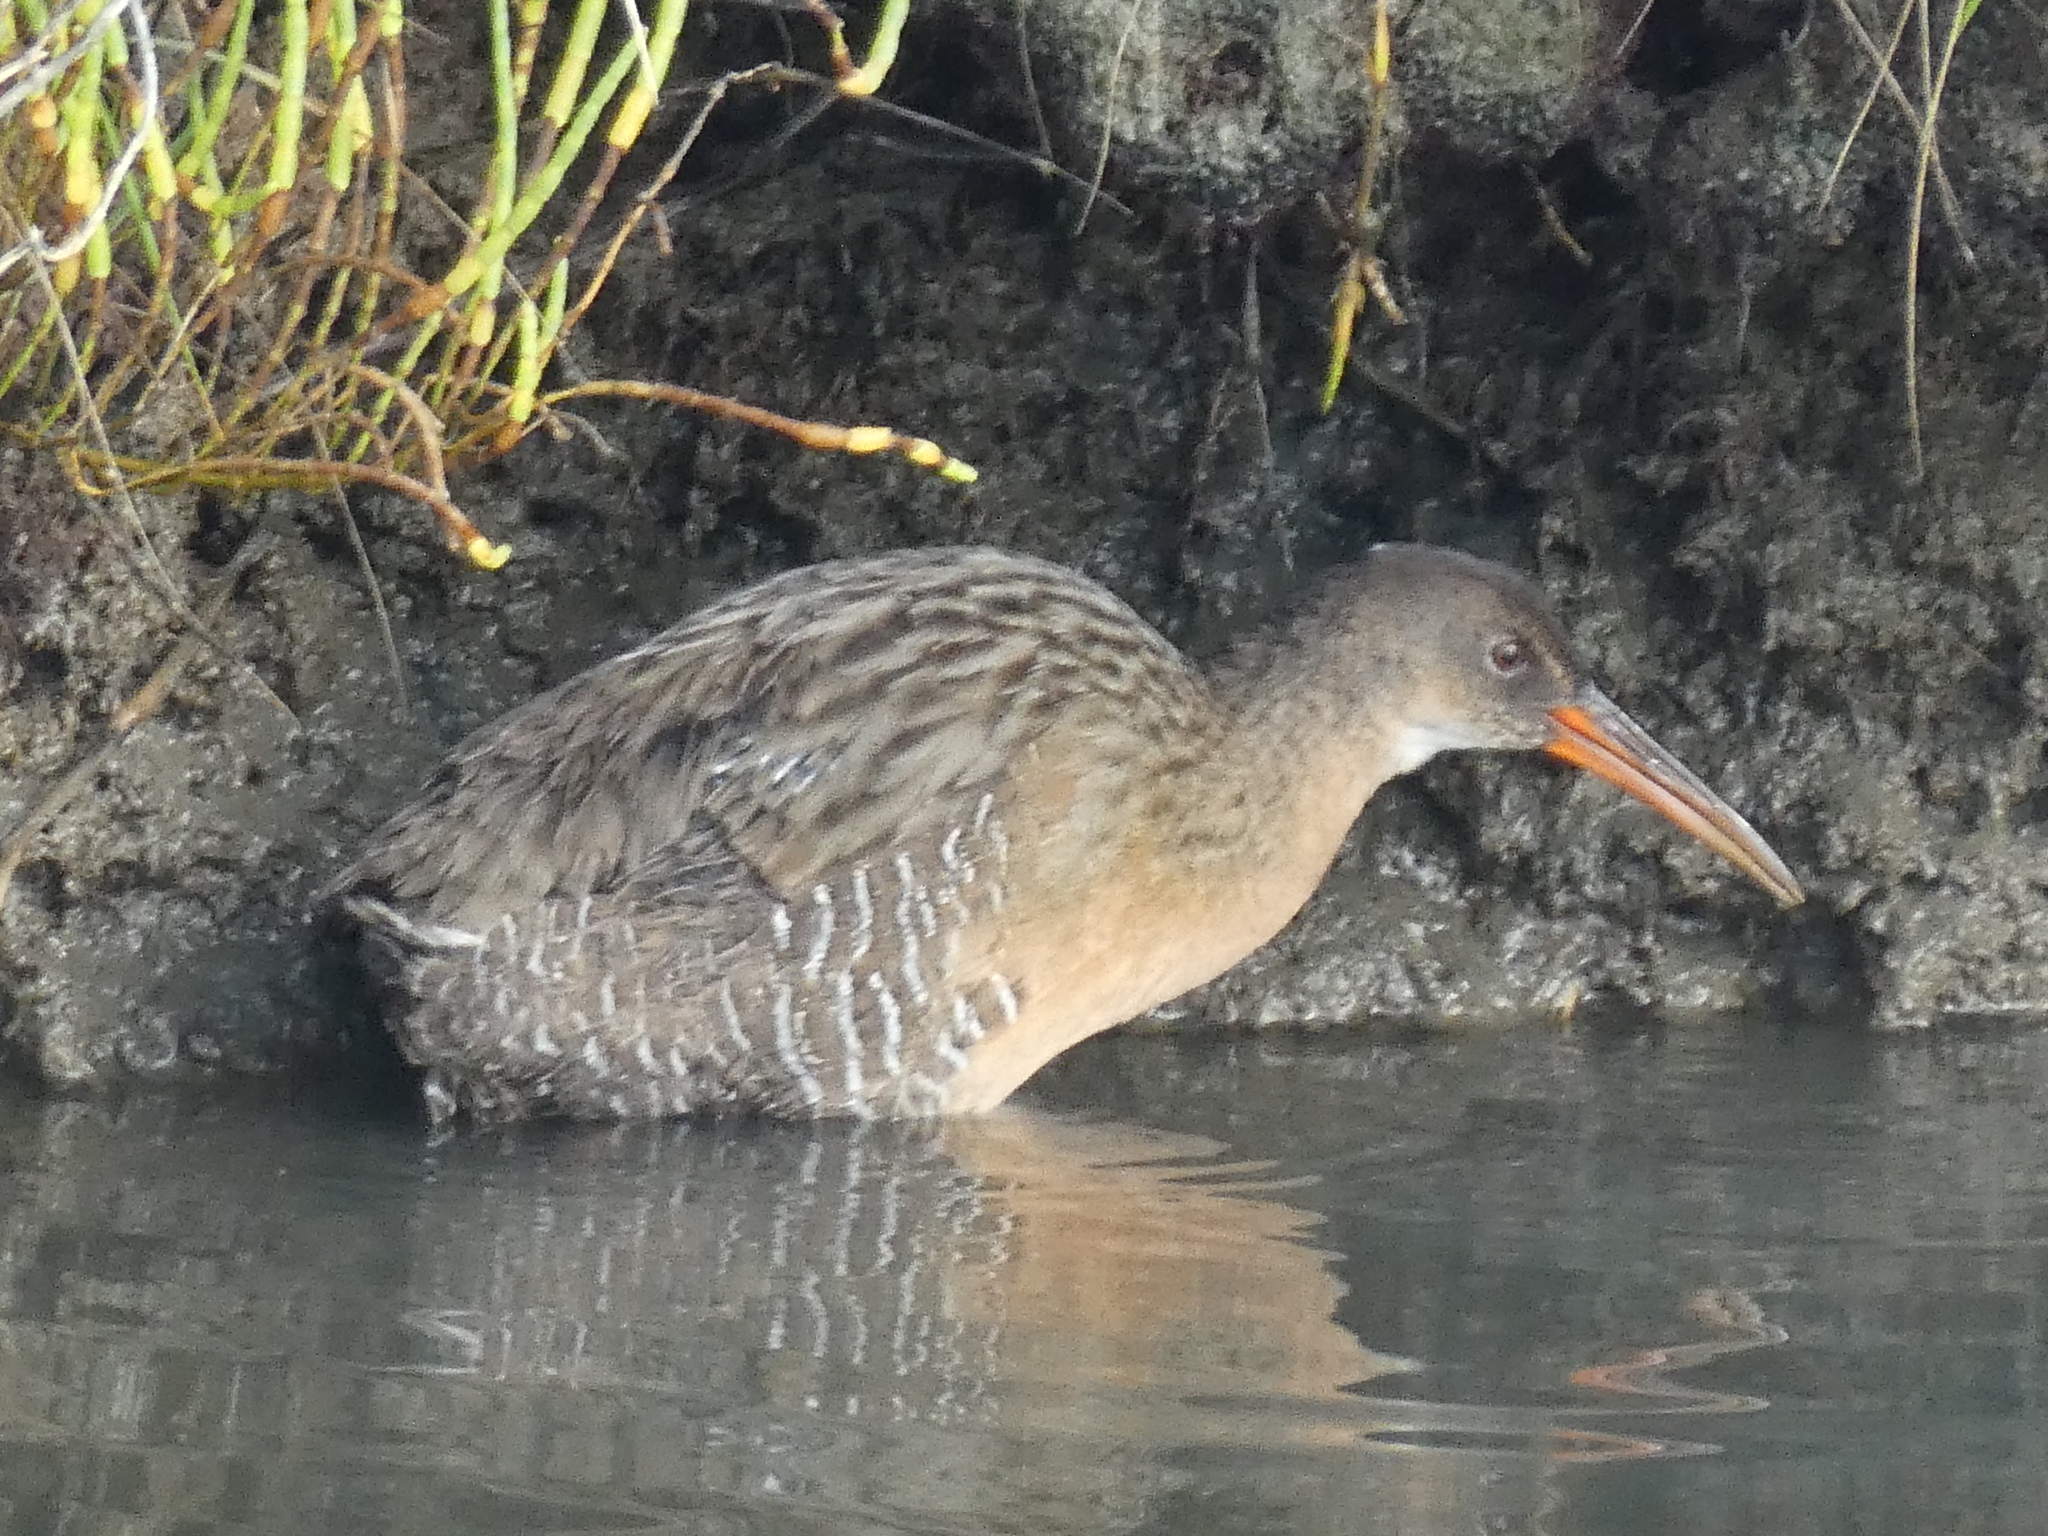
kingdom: Animalia
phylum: Chordata
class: Aves
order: Gruiformes
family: Rallidae
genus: Rallus
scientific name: Rallus obsoletus
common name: Ridgway's rail
